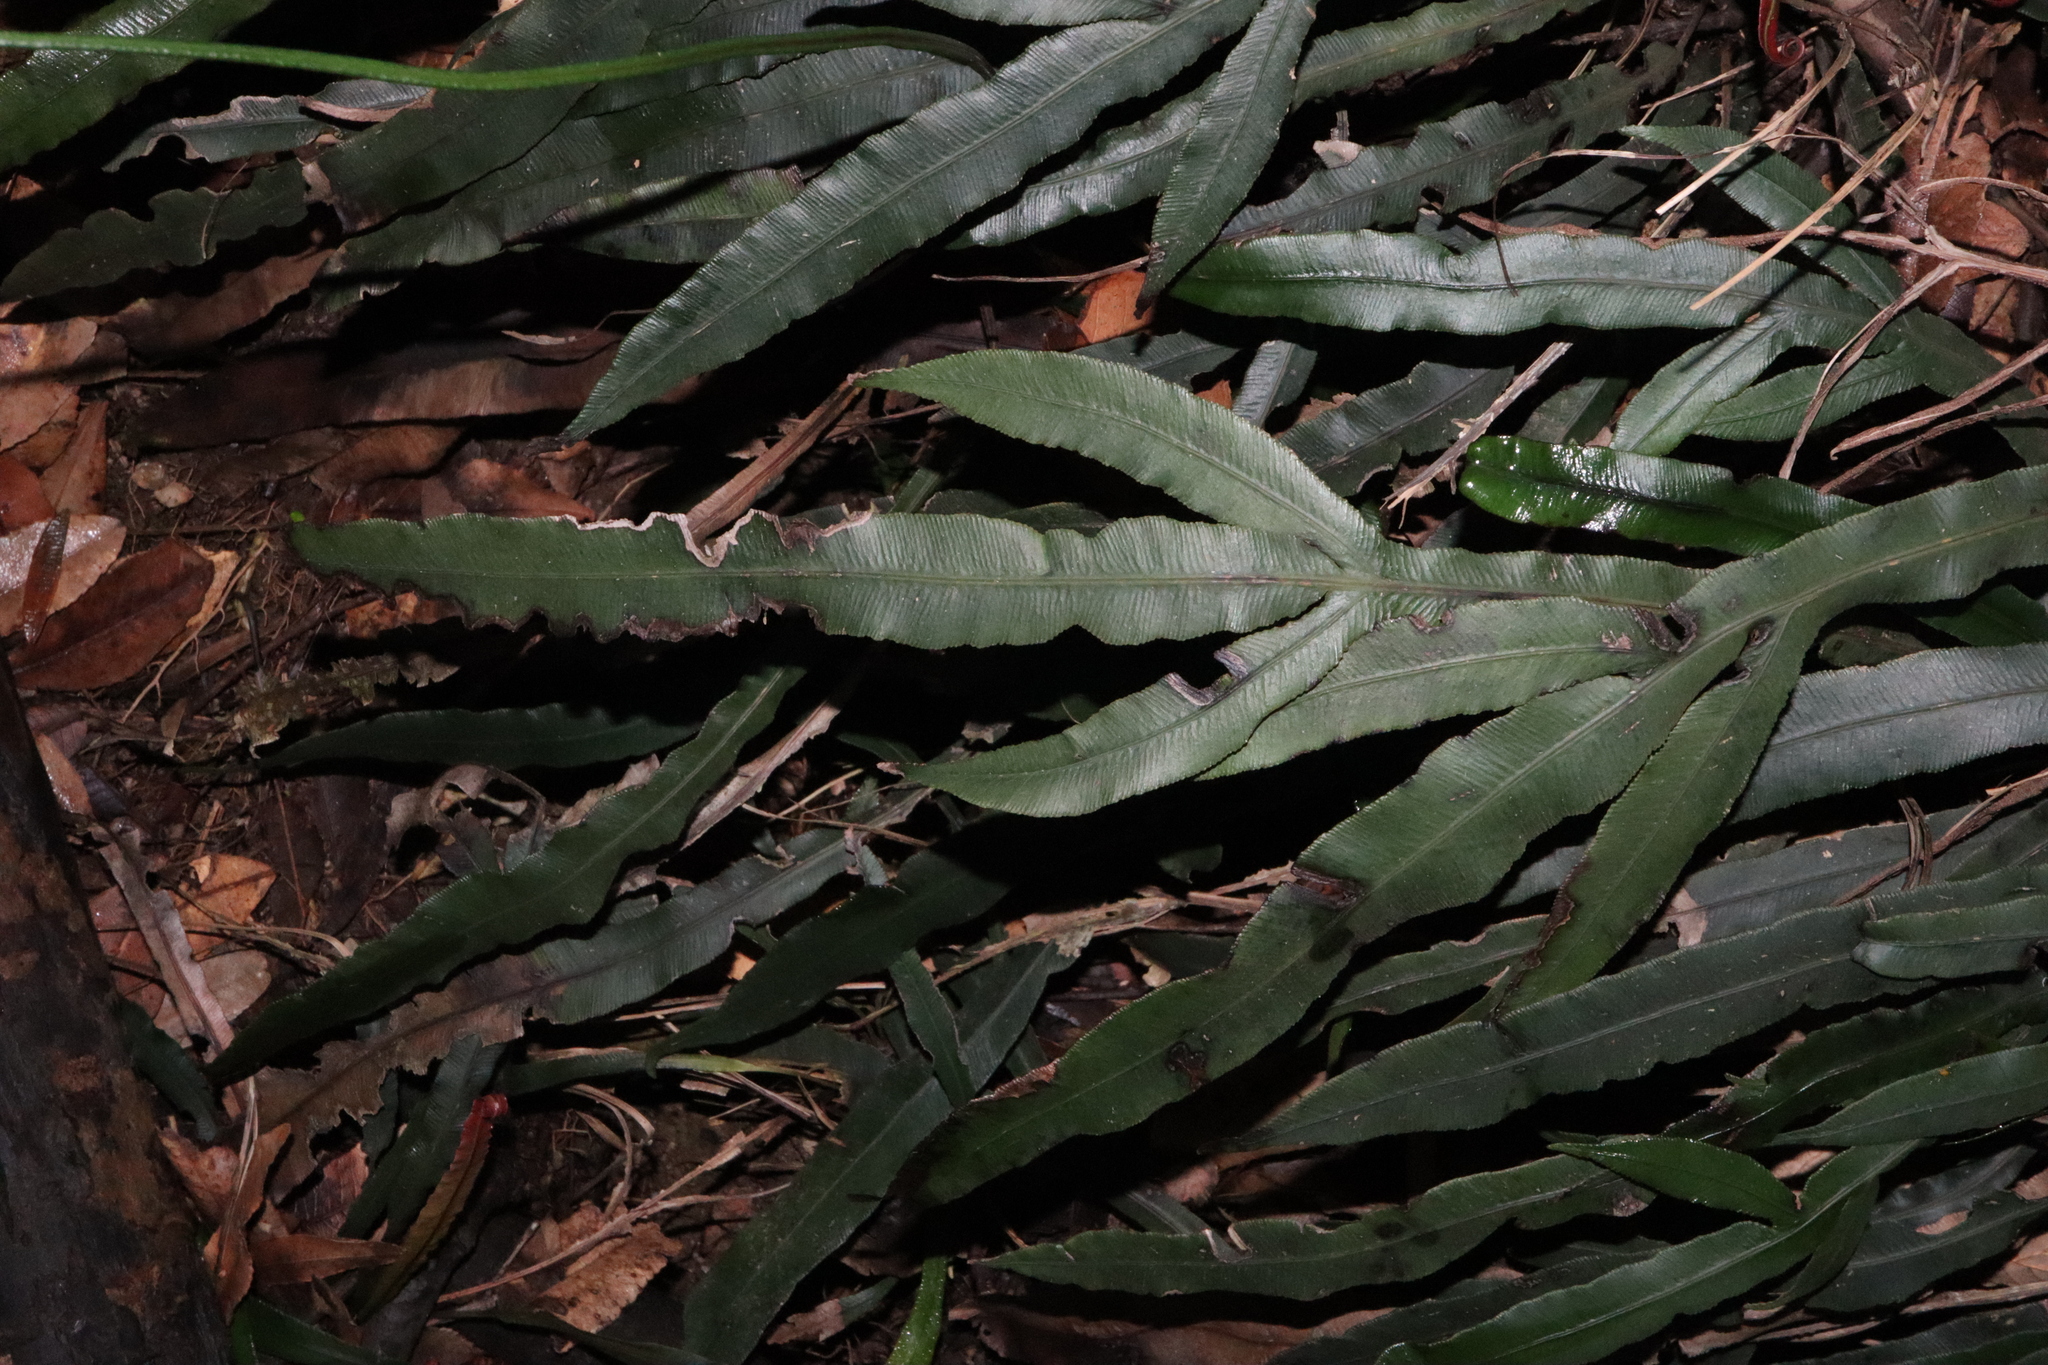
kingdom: Plantae
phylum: Tracheophyta
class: Polypodiopsida
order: Polypodiales
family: Blechnaceae
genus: Austroblechnum
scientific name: Austroblechnum patersonii
